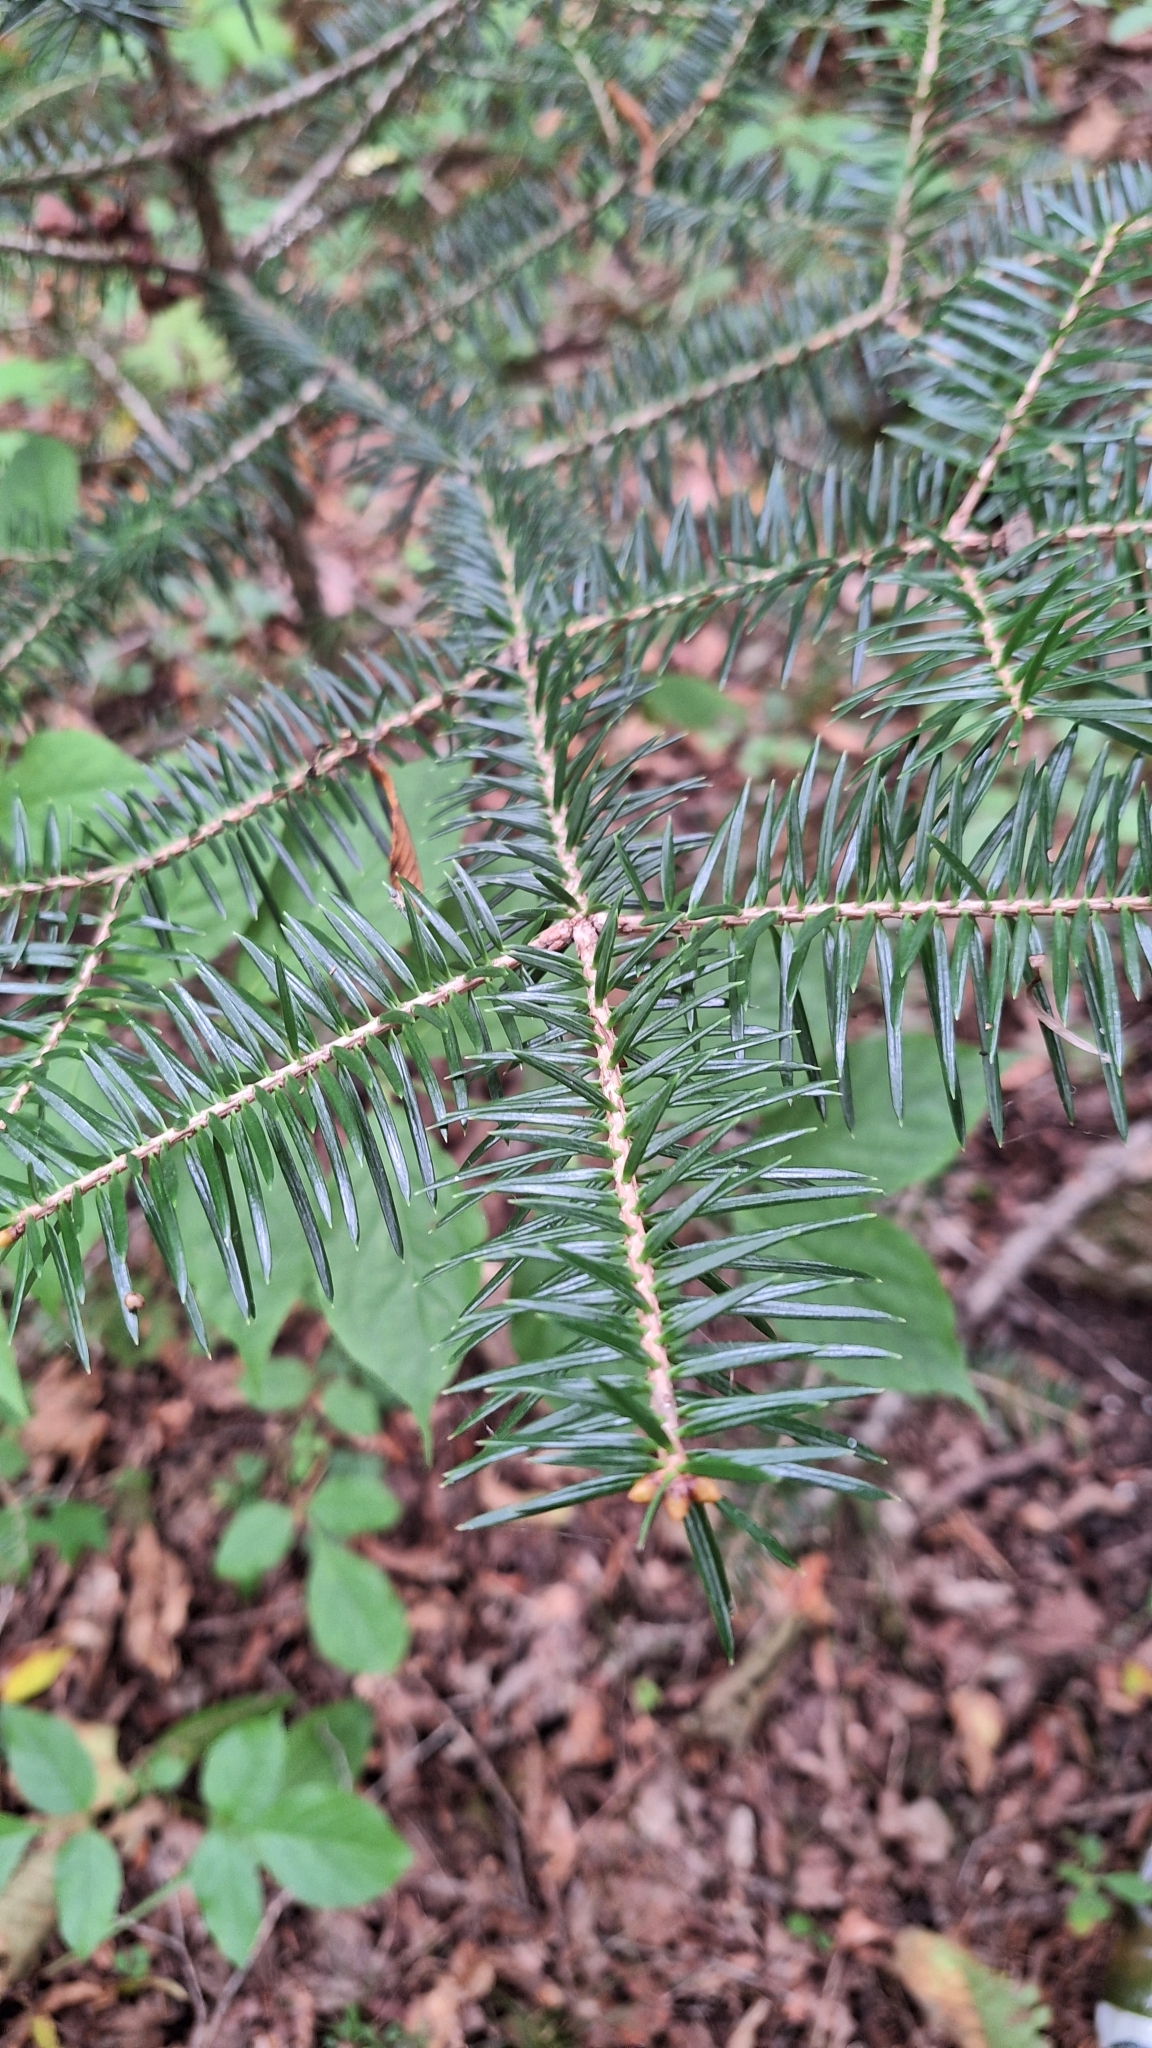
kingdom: Plantae
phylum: Tracheophyta
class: Pinopsida
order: Pinales
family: Pinaceae
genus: Abies
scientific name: Abies holophylla
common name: Manchurian fir
